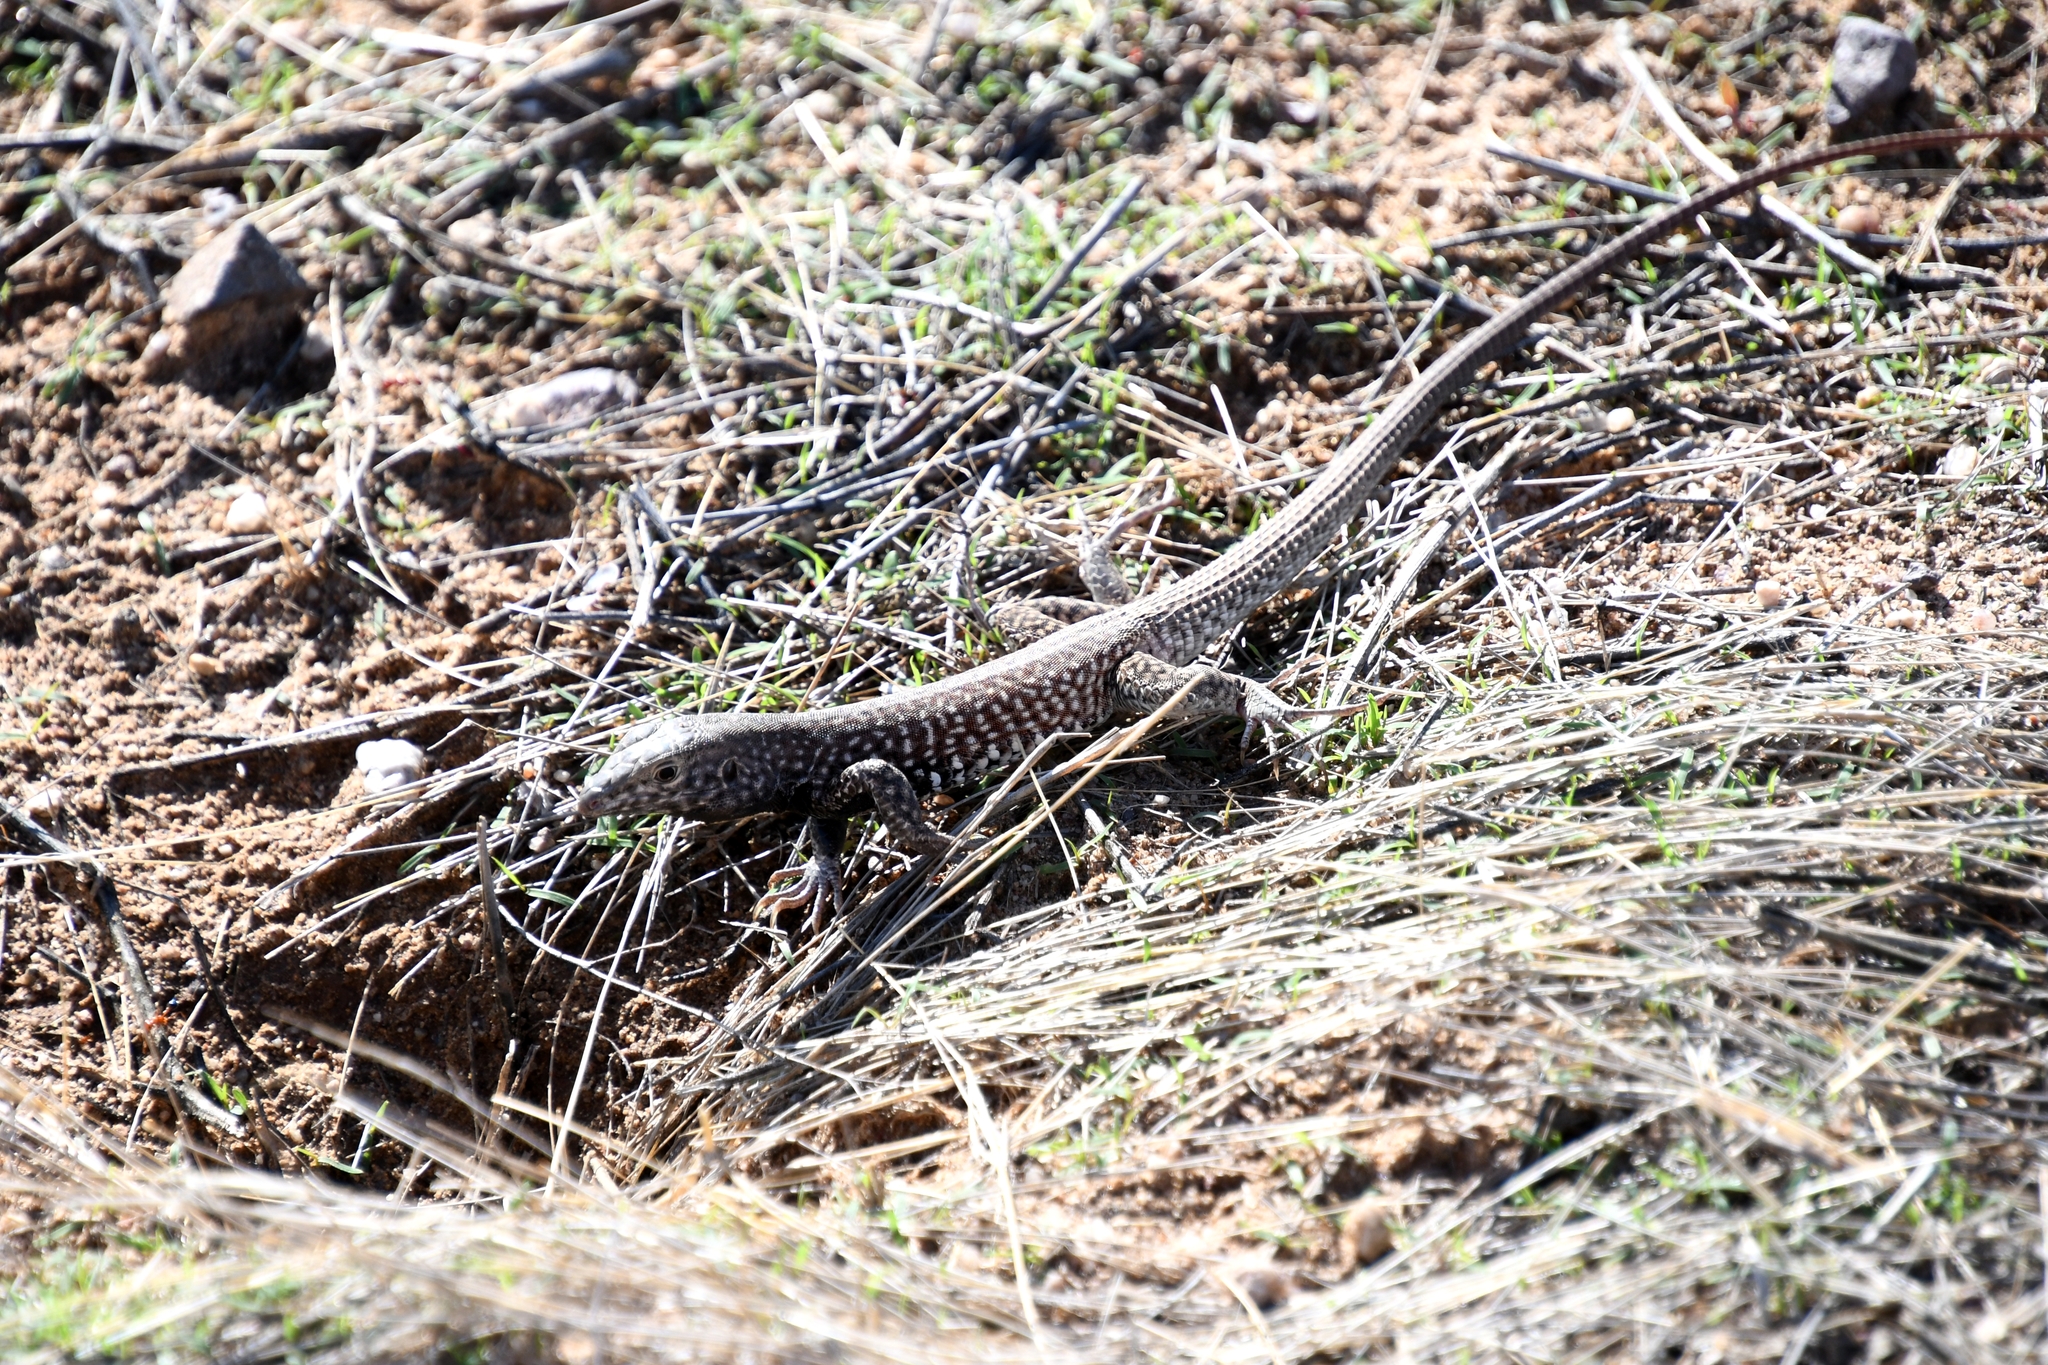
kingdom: Animalia
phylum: Chordata
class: Squamata
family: Teiidae
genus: Aspidoscelis
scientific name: Aspidoscelis tigris
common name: Tiger whiptail
